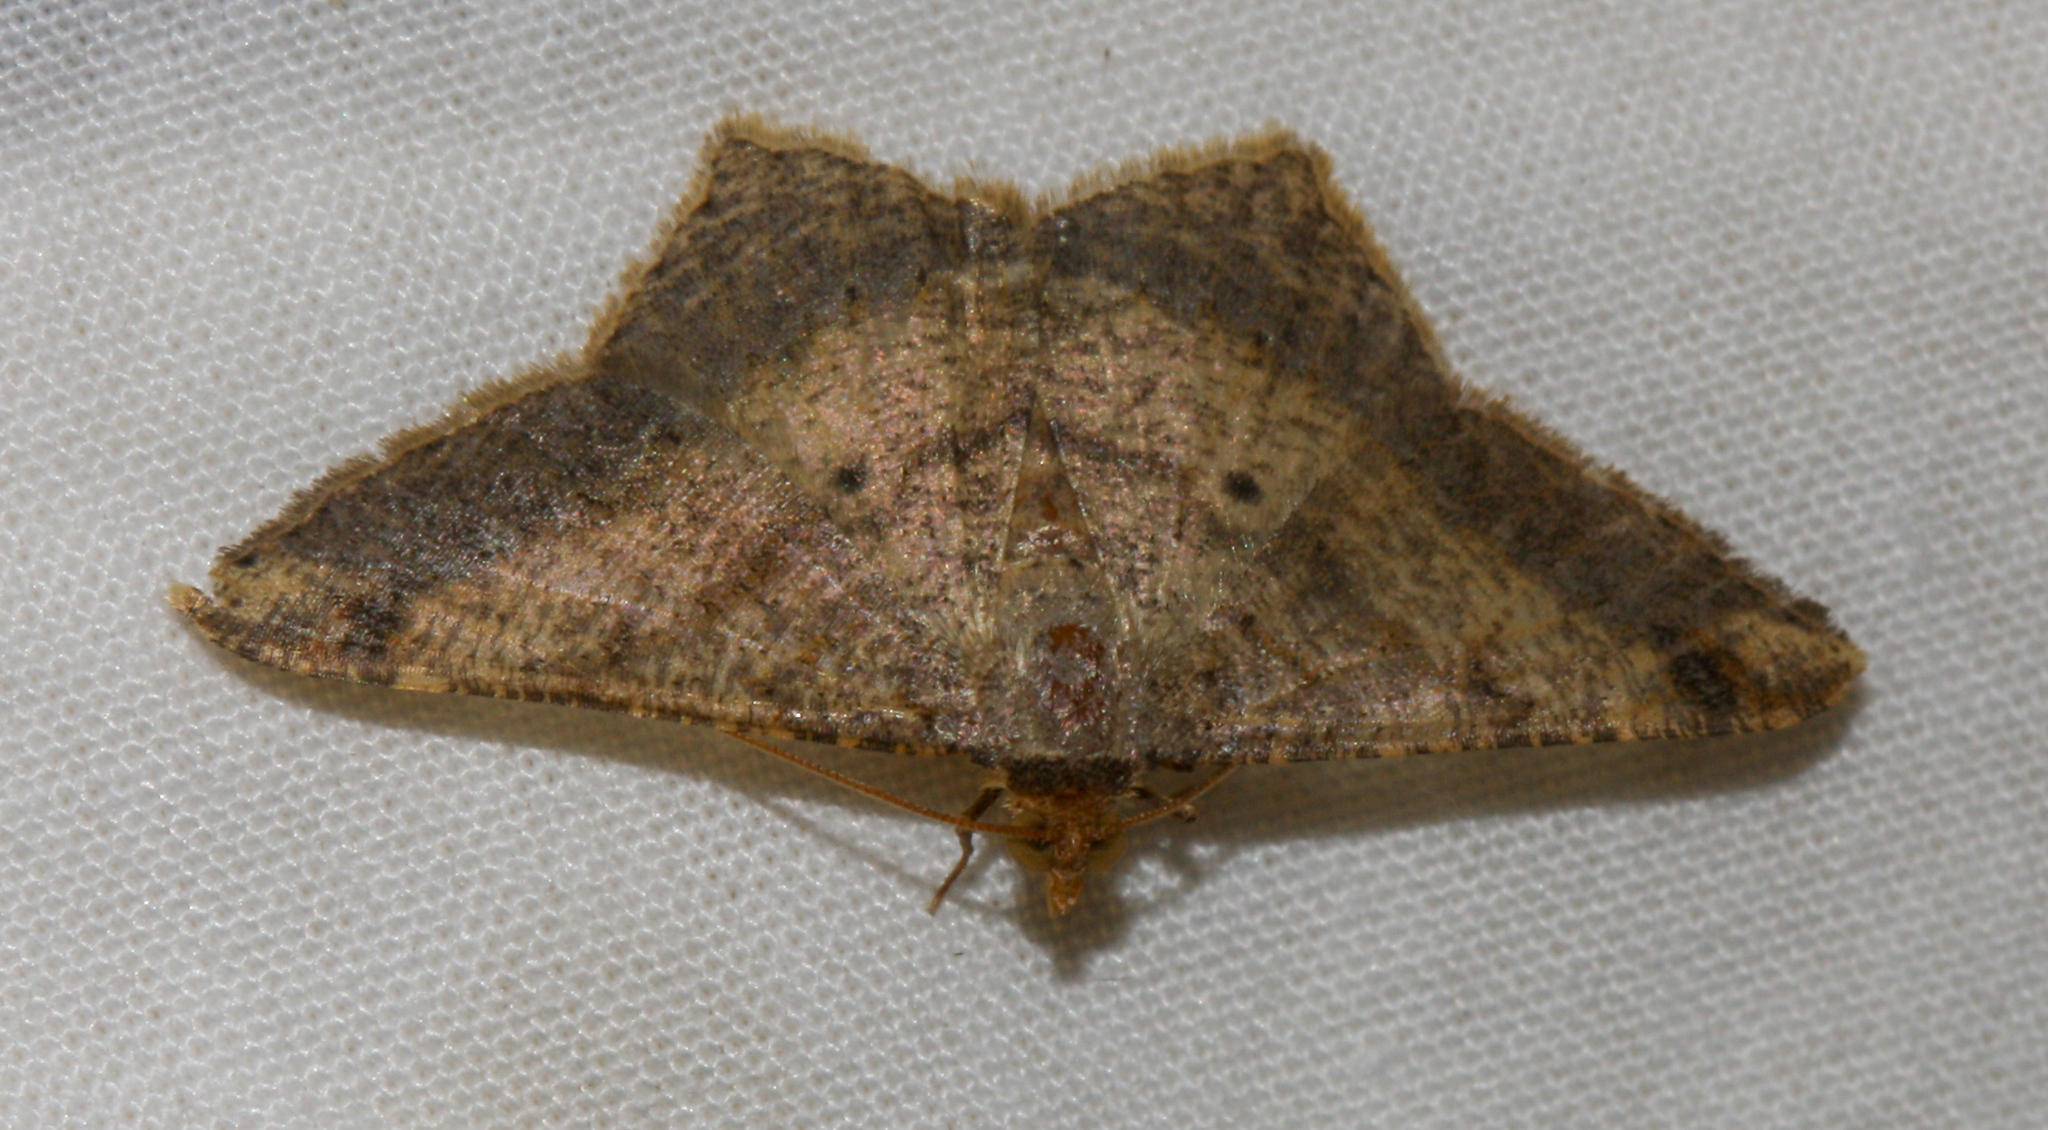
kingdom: Animalia
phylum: Arthropoda
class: Insecta
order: Lepidoptera
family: Geometridae
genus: Macaria
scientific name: Macaria abydata
